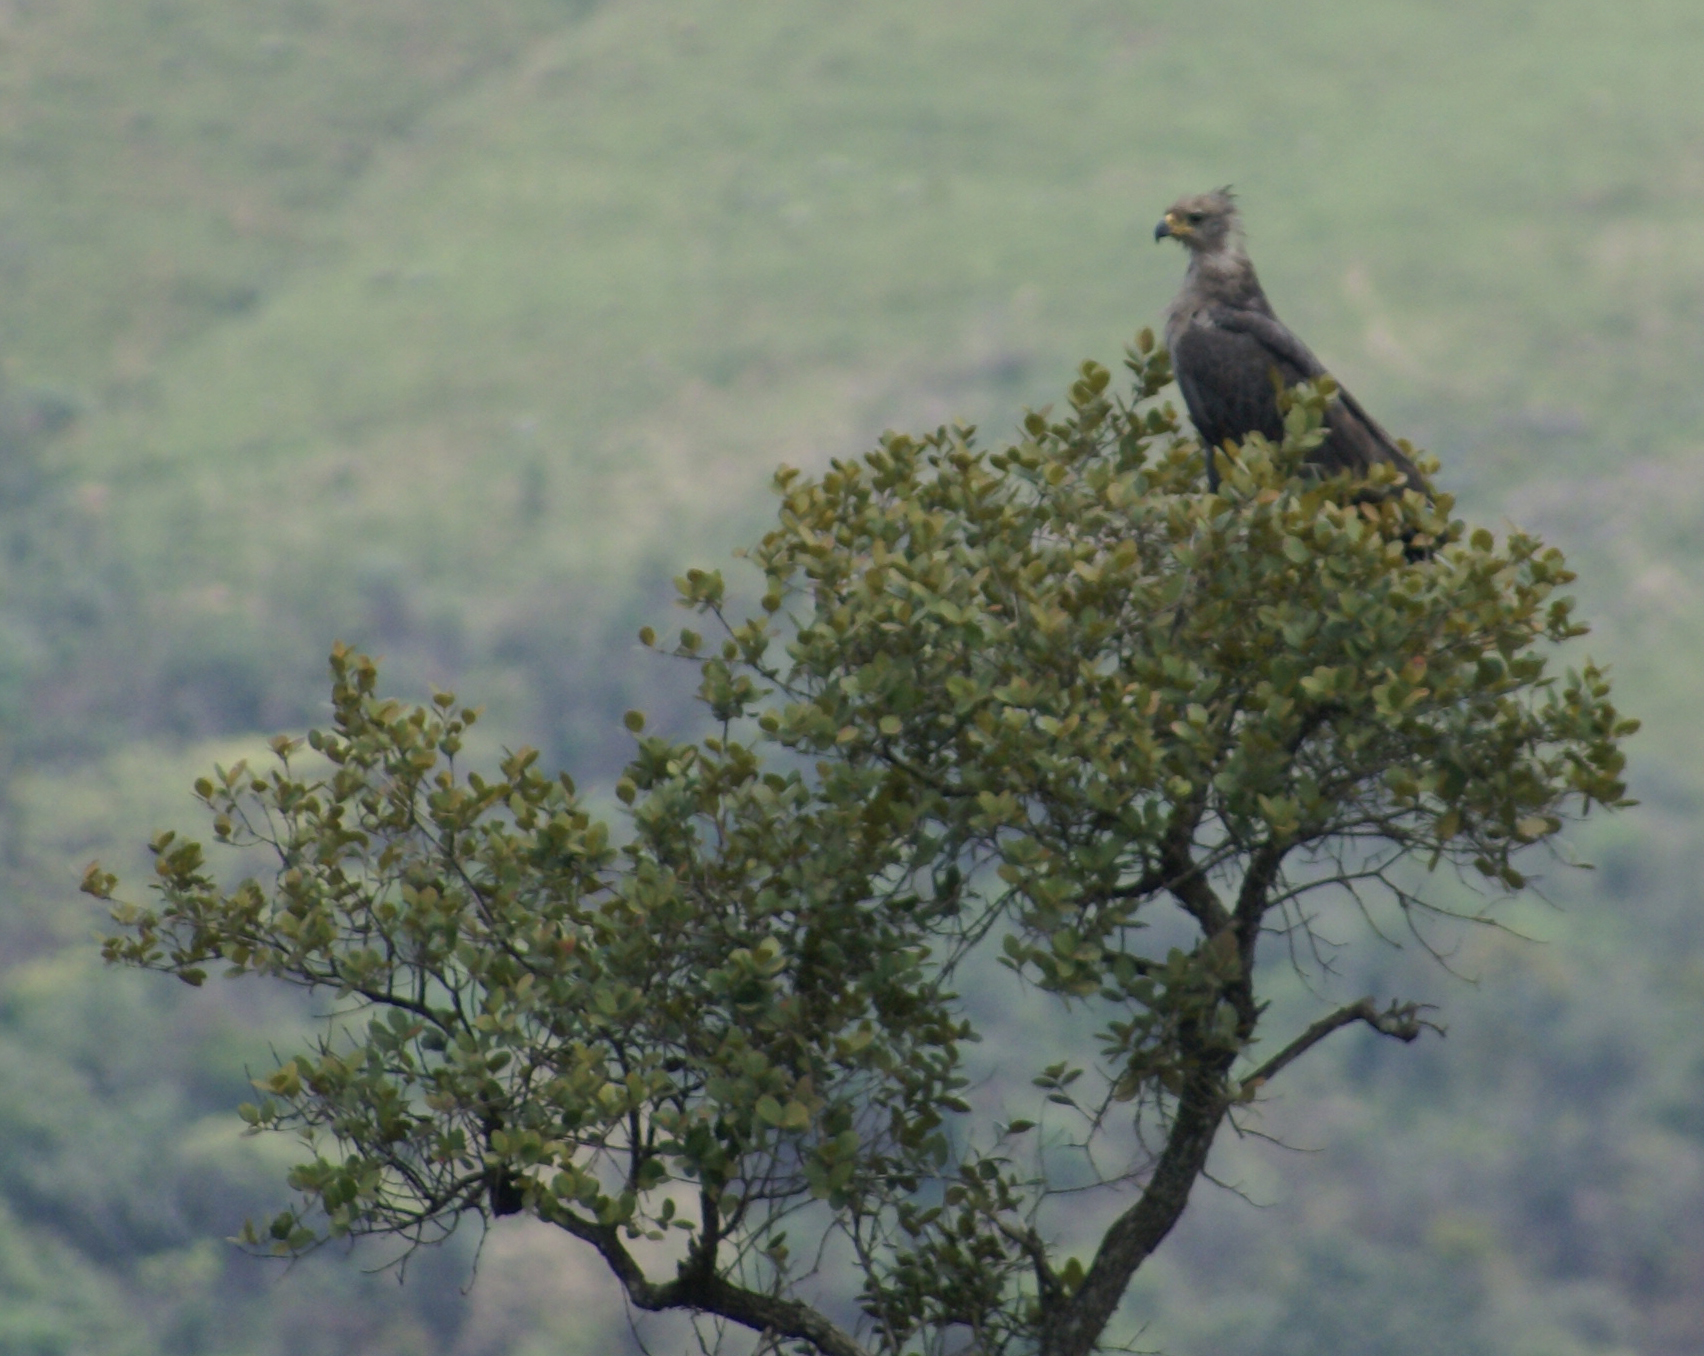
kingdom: Animalia
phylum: Chordata
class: Aves
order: Accipitriformes
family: Accipitridae
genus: Harpyhaliaetus
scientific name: Harpyhaliaetus coronatus
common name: Crowned solitary eagle
